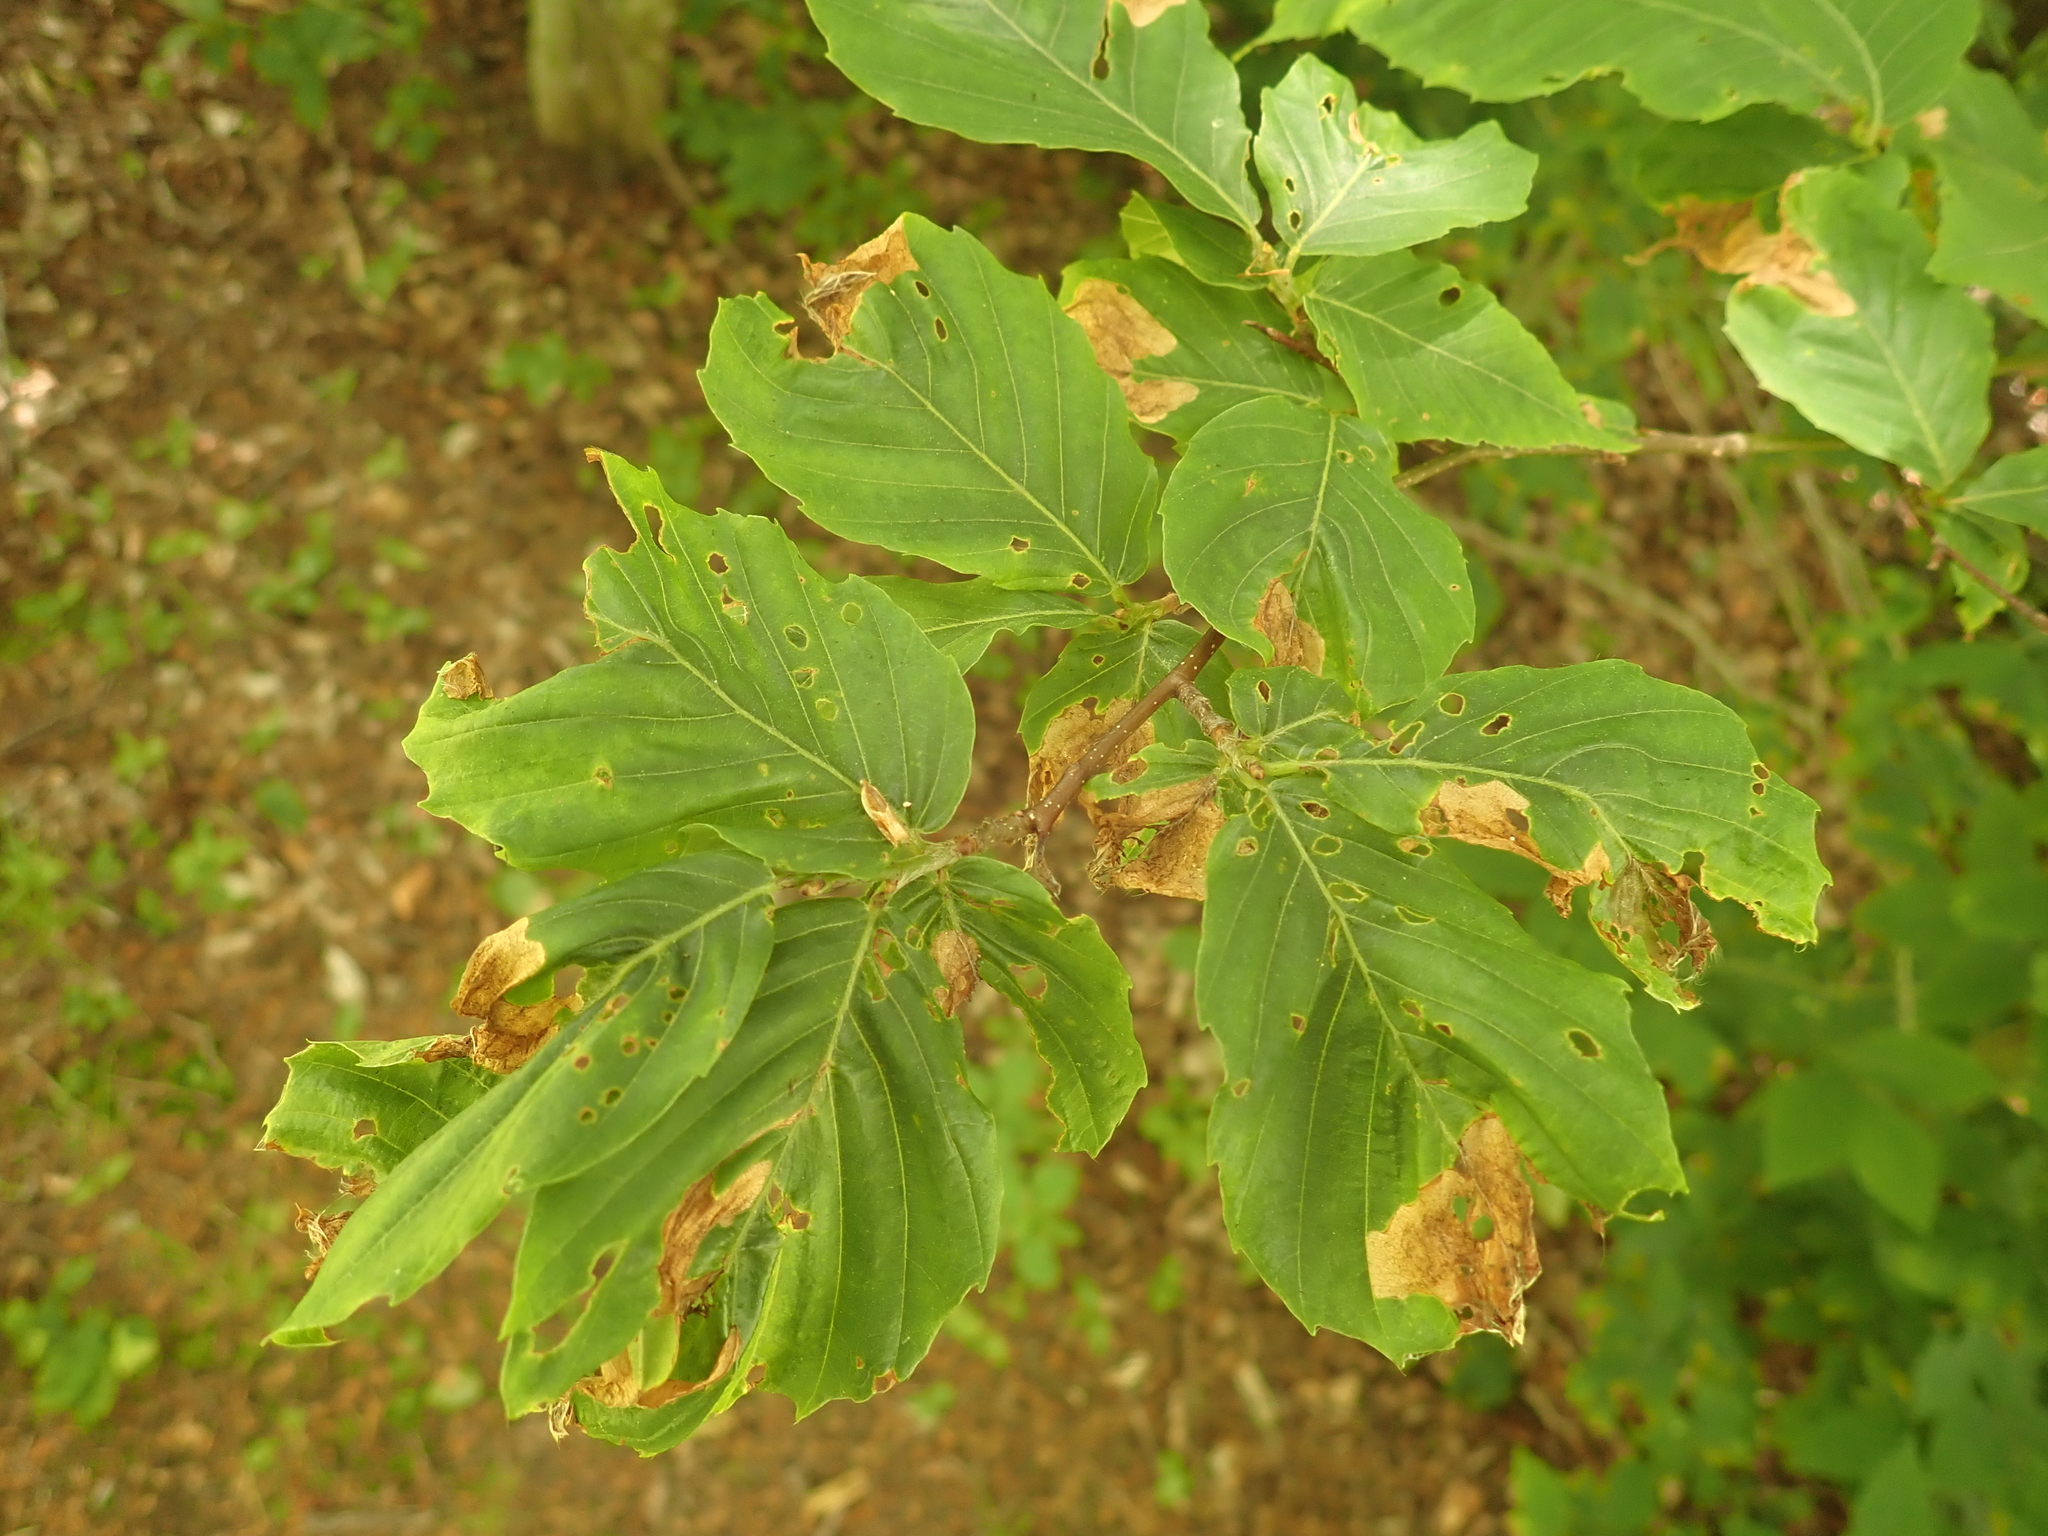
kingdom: Animalia
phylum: Arthropoda
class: Insecta
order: Coleoptera
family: Curculionidae
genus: Orchestes
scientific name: Orchestes fagi
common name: Beech leaf miner
